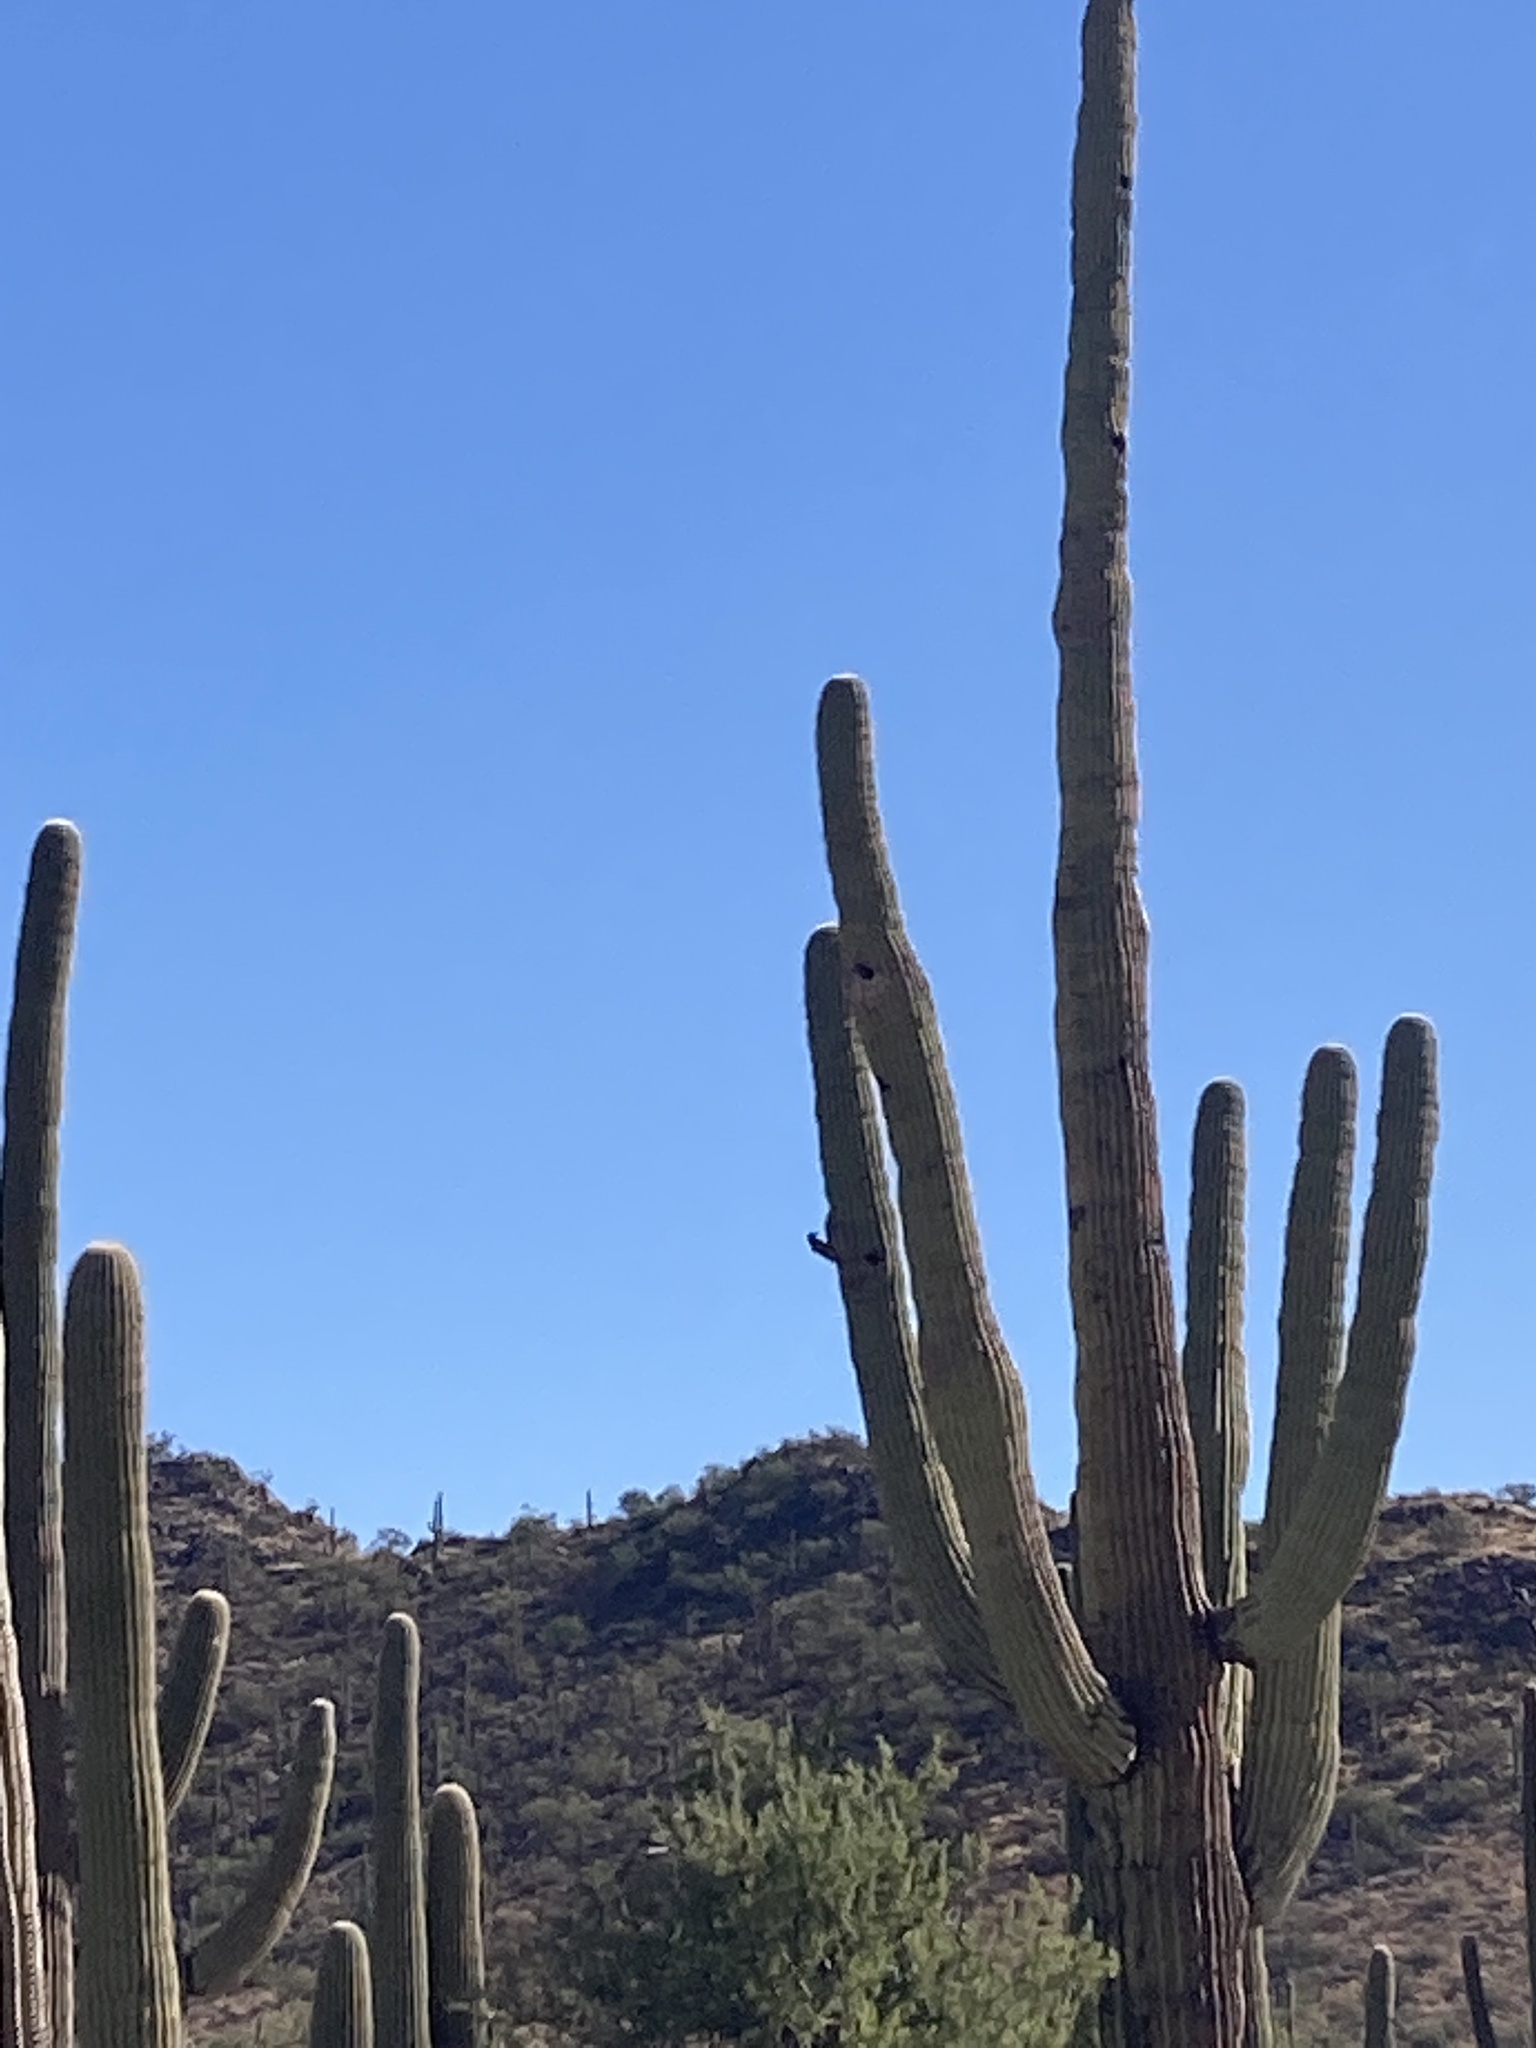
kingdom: Animalia
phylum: Chordata
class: Aves
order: Piciformes
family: Picidae
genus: Melanerpes
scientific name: Melanerpes uropygialis
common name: Gila woodpecker
